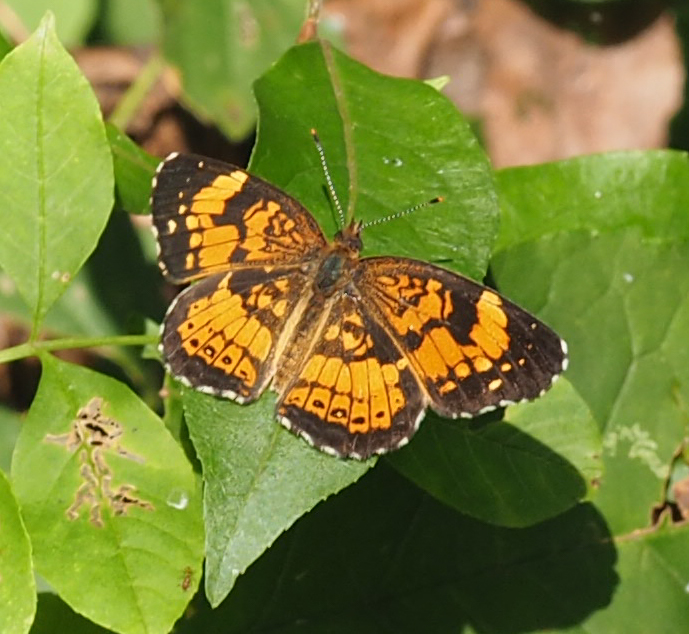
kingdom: Animalia
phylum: Arthropoda
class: Insecta
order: Lepidoptera
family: Nymphalidae
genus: Chlosyne
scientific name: Chlosyne nycteis
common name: Silvery checkerspot
